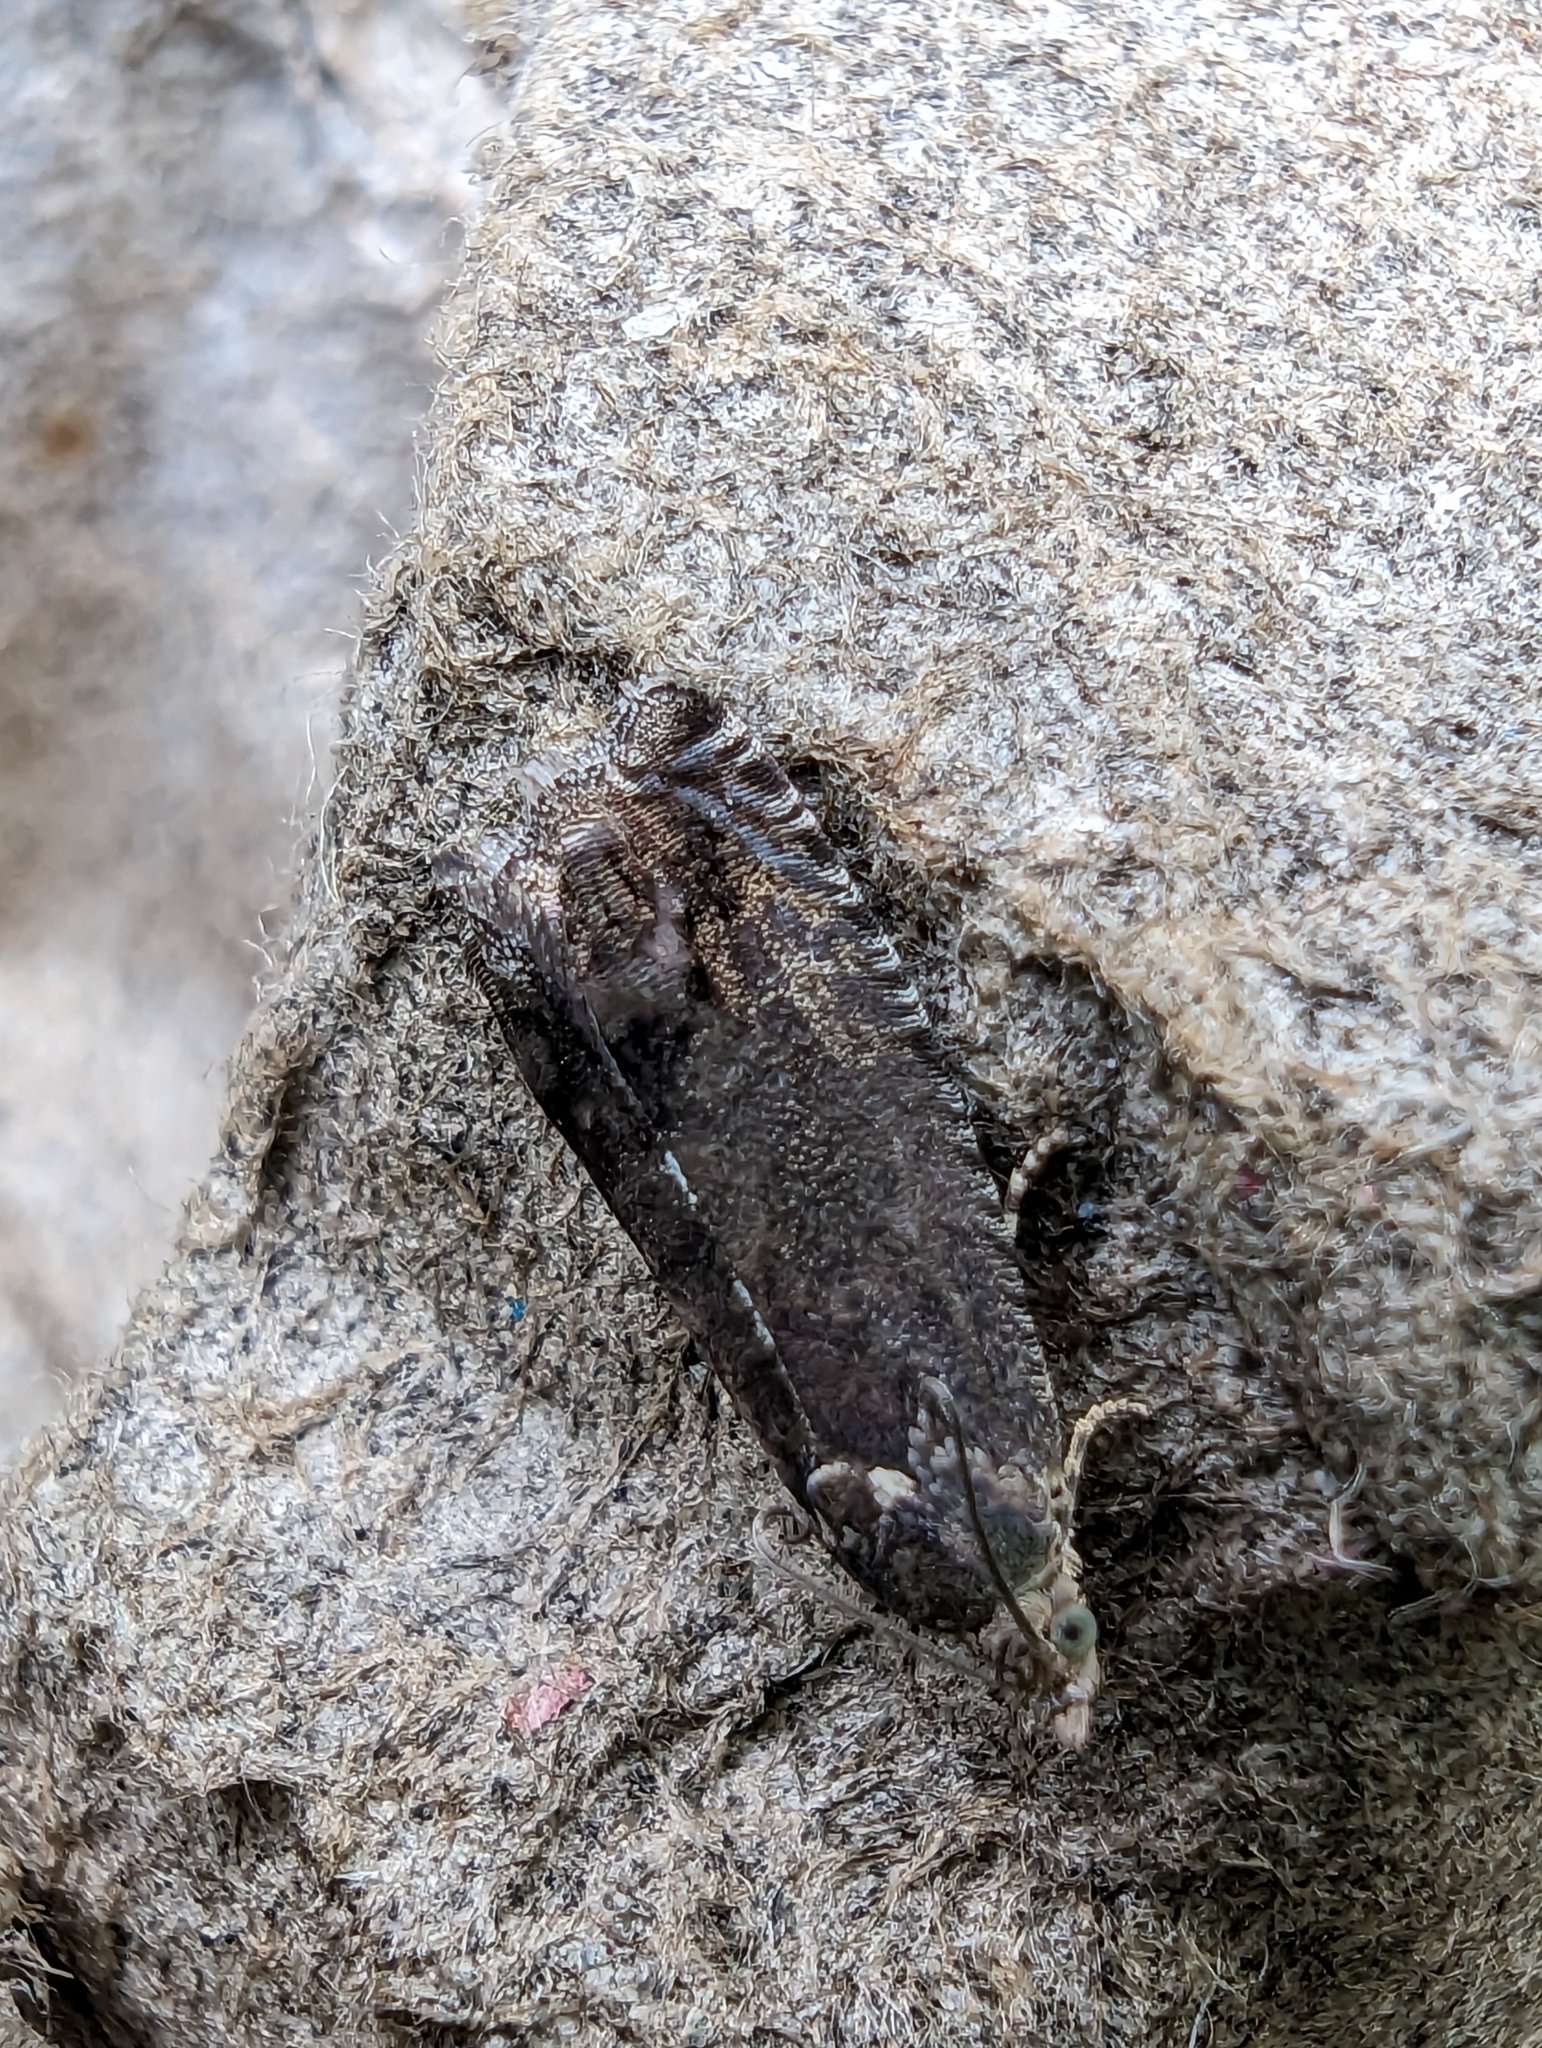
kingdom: Animalia
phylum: Arthropoda
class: Insecta
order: Lepidoptera
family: Tortricidae
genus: Cydia
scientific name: Cydia splendana
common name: De: kastanienwickler, eichenwickler es: oruga de la castaña fr: carpocapse des châtaignes it: cidia o tortrice tardiva delle castagne pt: bichado das castanhas gb: acorn moth, chestnut fruit tortrix
